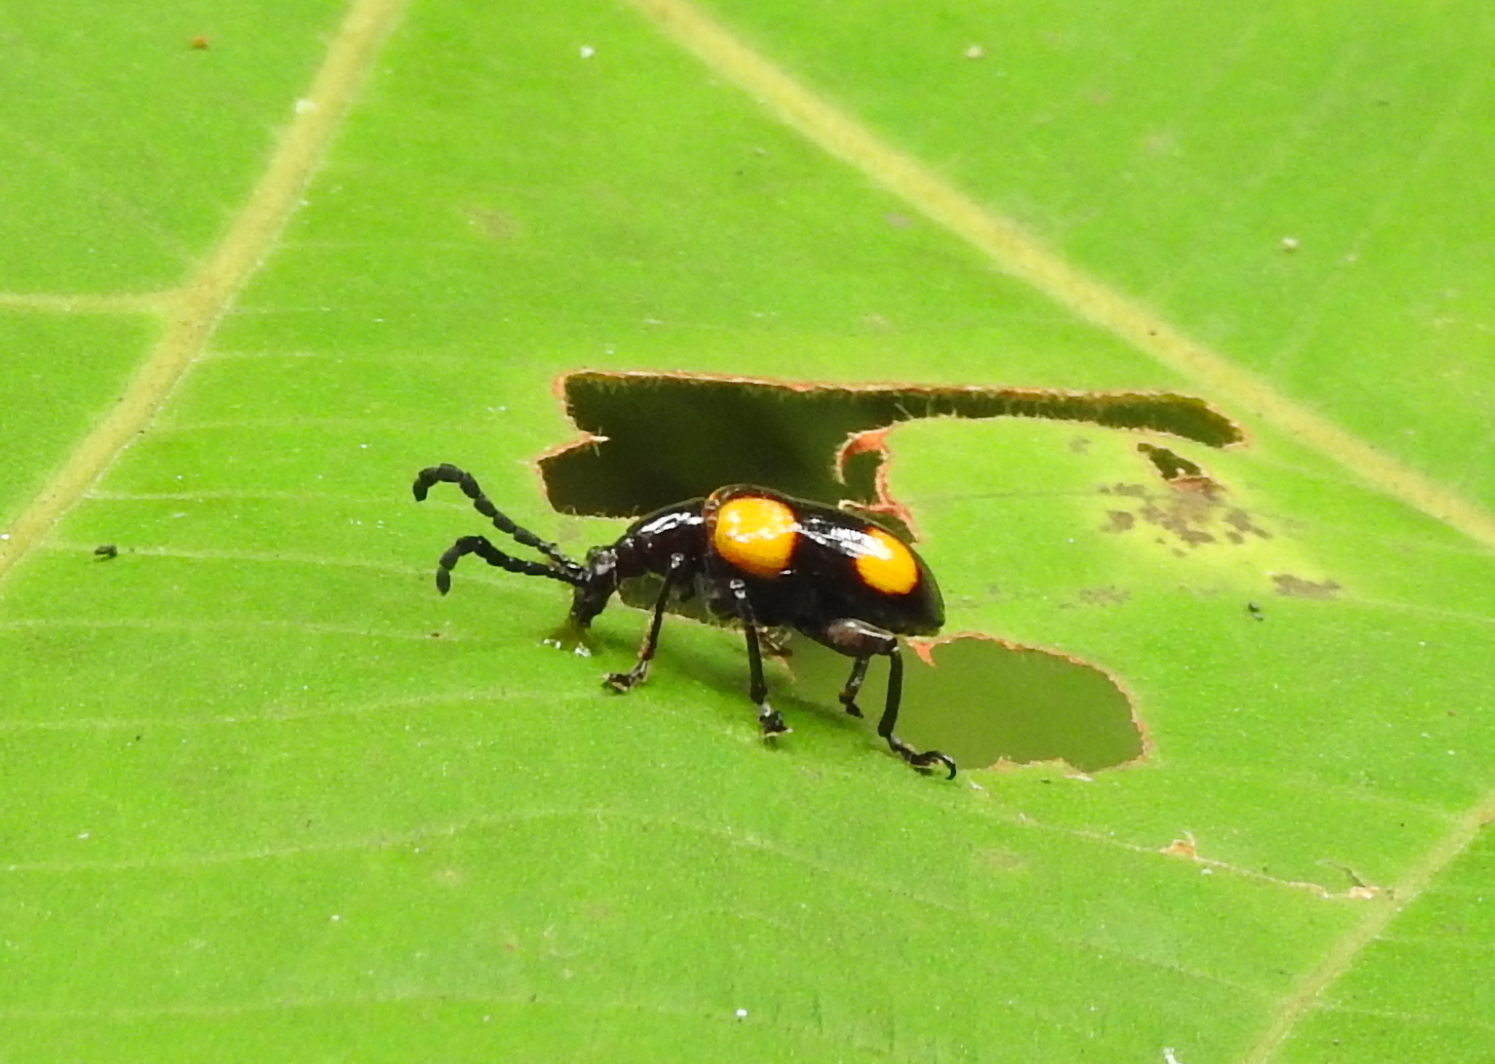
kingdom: Animalia
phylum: Arthropoda
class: Insecta
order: Coleoptera
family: Chrysomelidae
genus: Lilioceris
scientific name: Lilioceris
